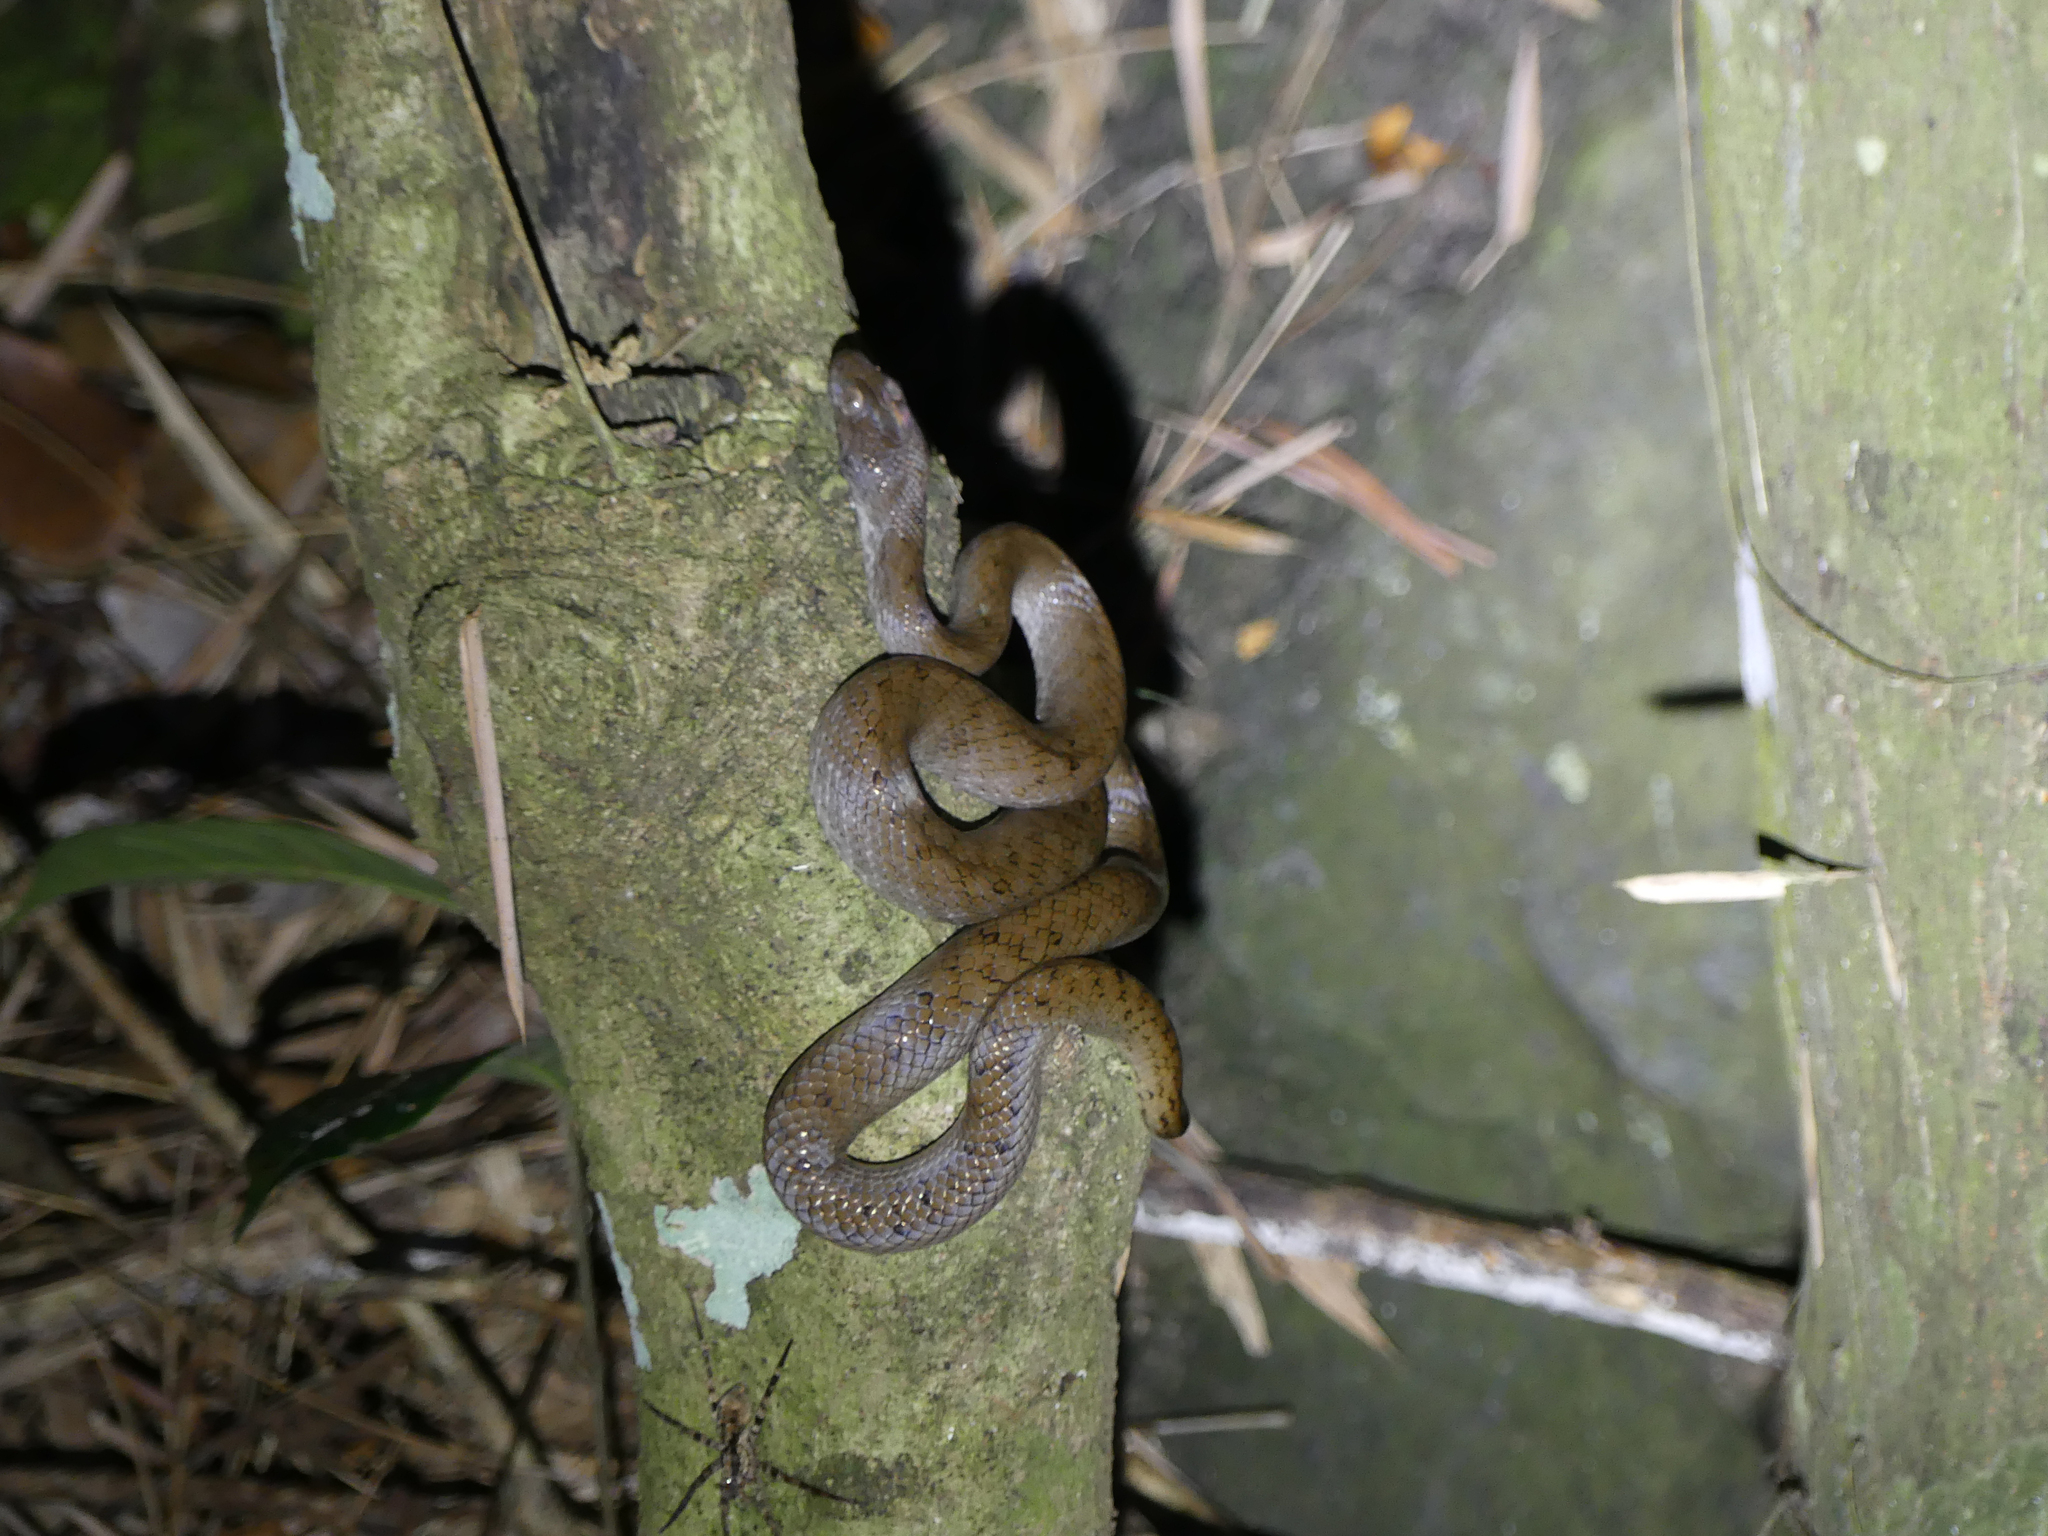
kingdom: Animalia
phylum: Chordata
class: Squamata
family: Pseudoxyrhophiidae
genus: Madagascarophis
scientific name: Madagascarophis colubrinus
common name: Madagascar night snake
